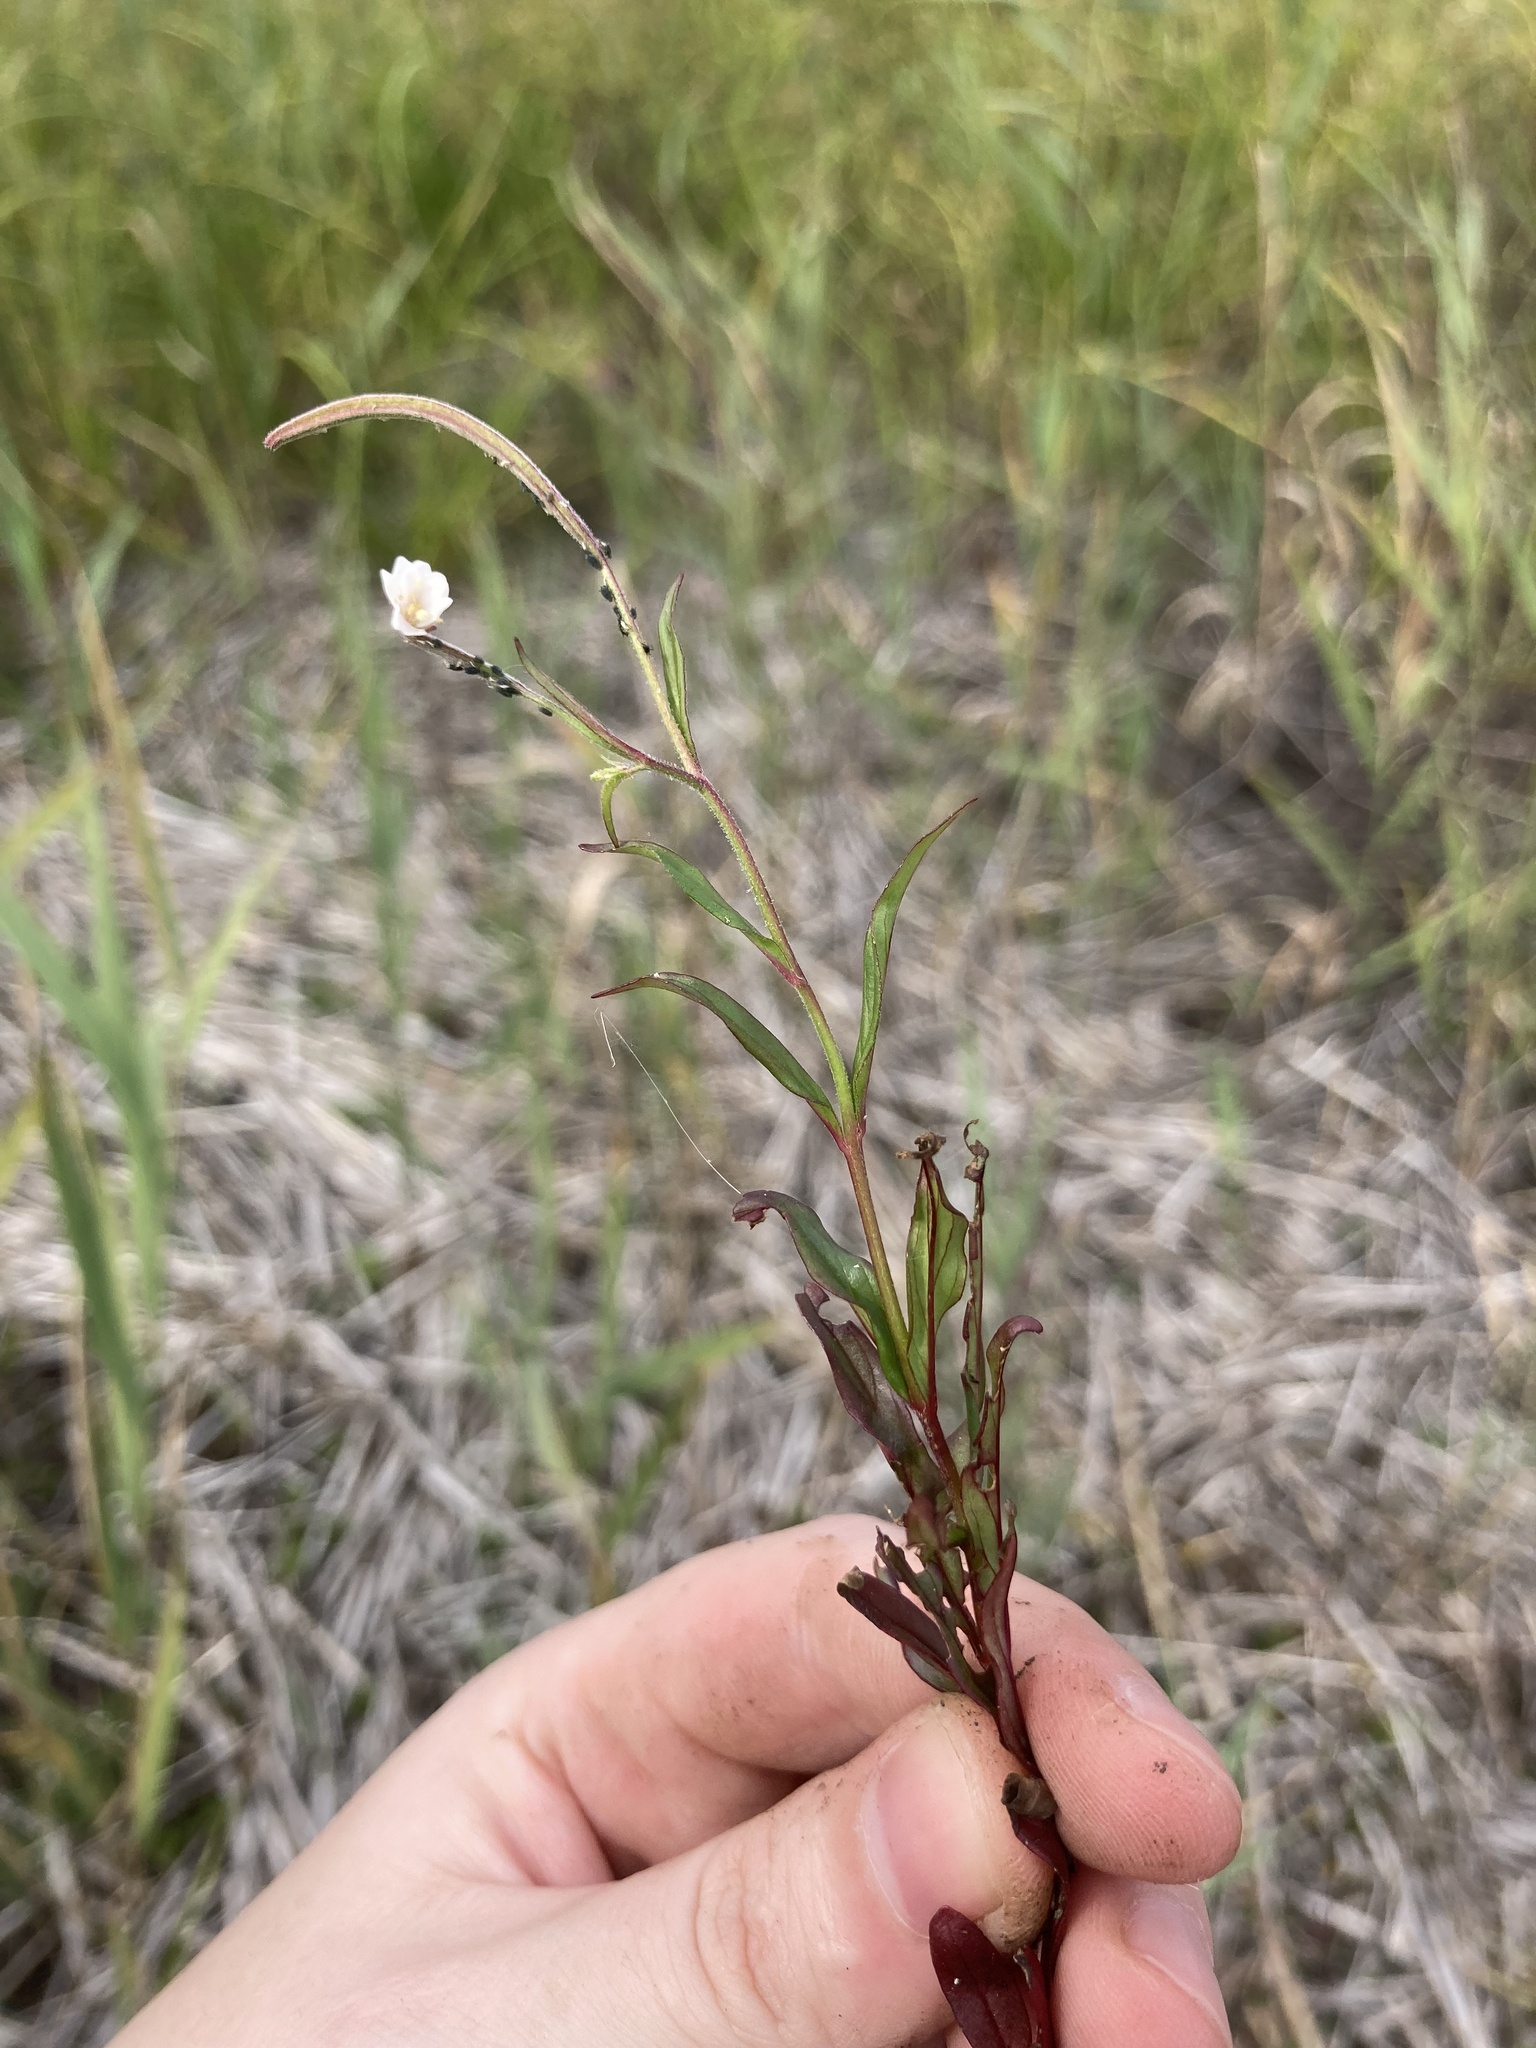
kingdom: Plantae
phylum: Tracheophyta
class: Magnoliopsida
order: Myrtales
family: Onagraceae
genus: Epilobium
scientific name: Epilobium palustre
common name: Marsh willowherb
